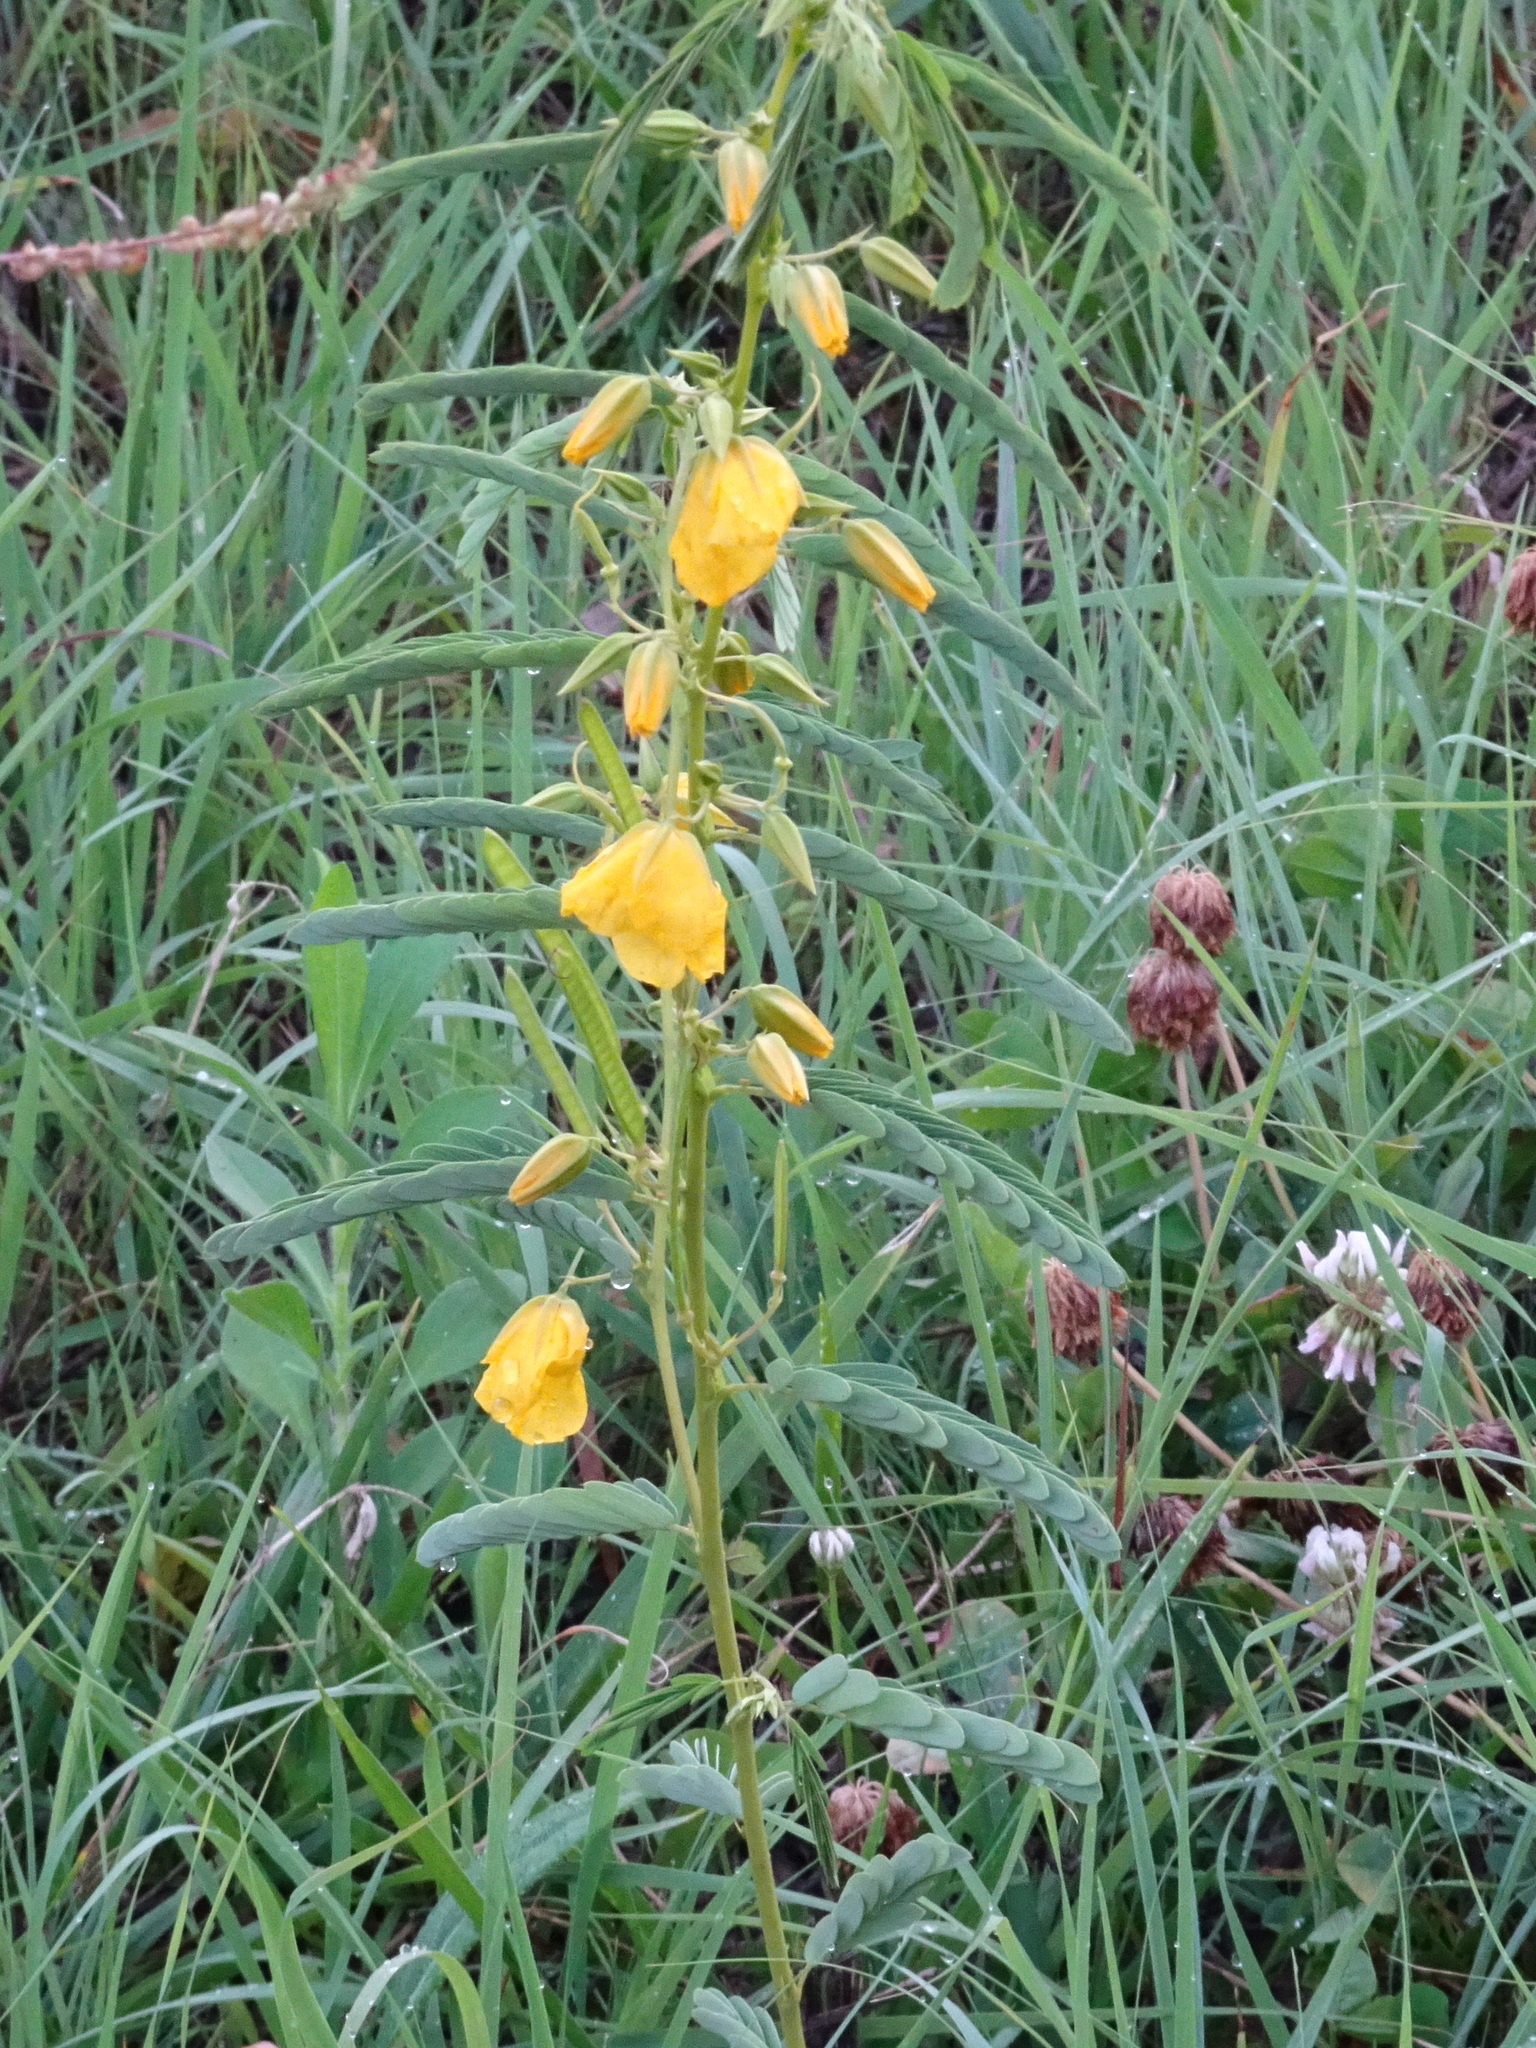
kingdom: Plantae
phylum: Tracheophyta
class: Magnoliopsida
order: Fabales
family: Fabaceae
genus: Chamaecrista
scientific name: Chamaecrista fasciculata
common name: Golden cassia
